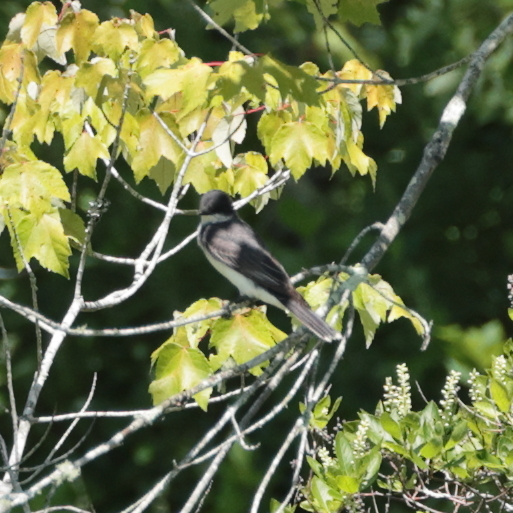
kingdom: Animalia
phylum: Chordata
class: Aves
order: Passeriformes
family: Tyrannidae
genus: Tyrannus
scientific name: Tyrannus tyrannus
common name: Eastern kingbird
